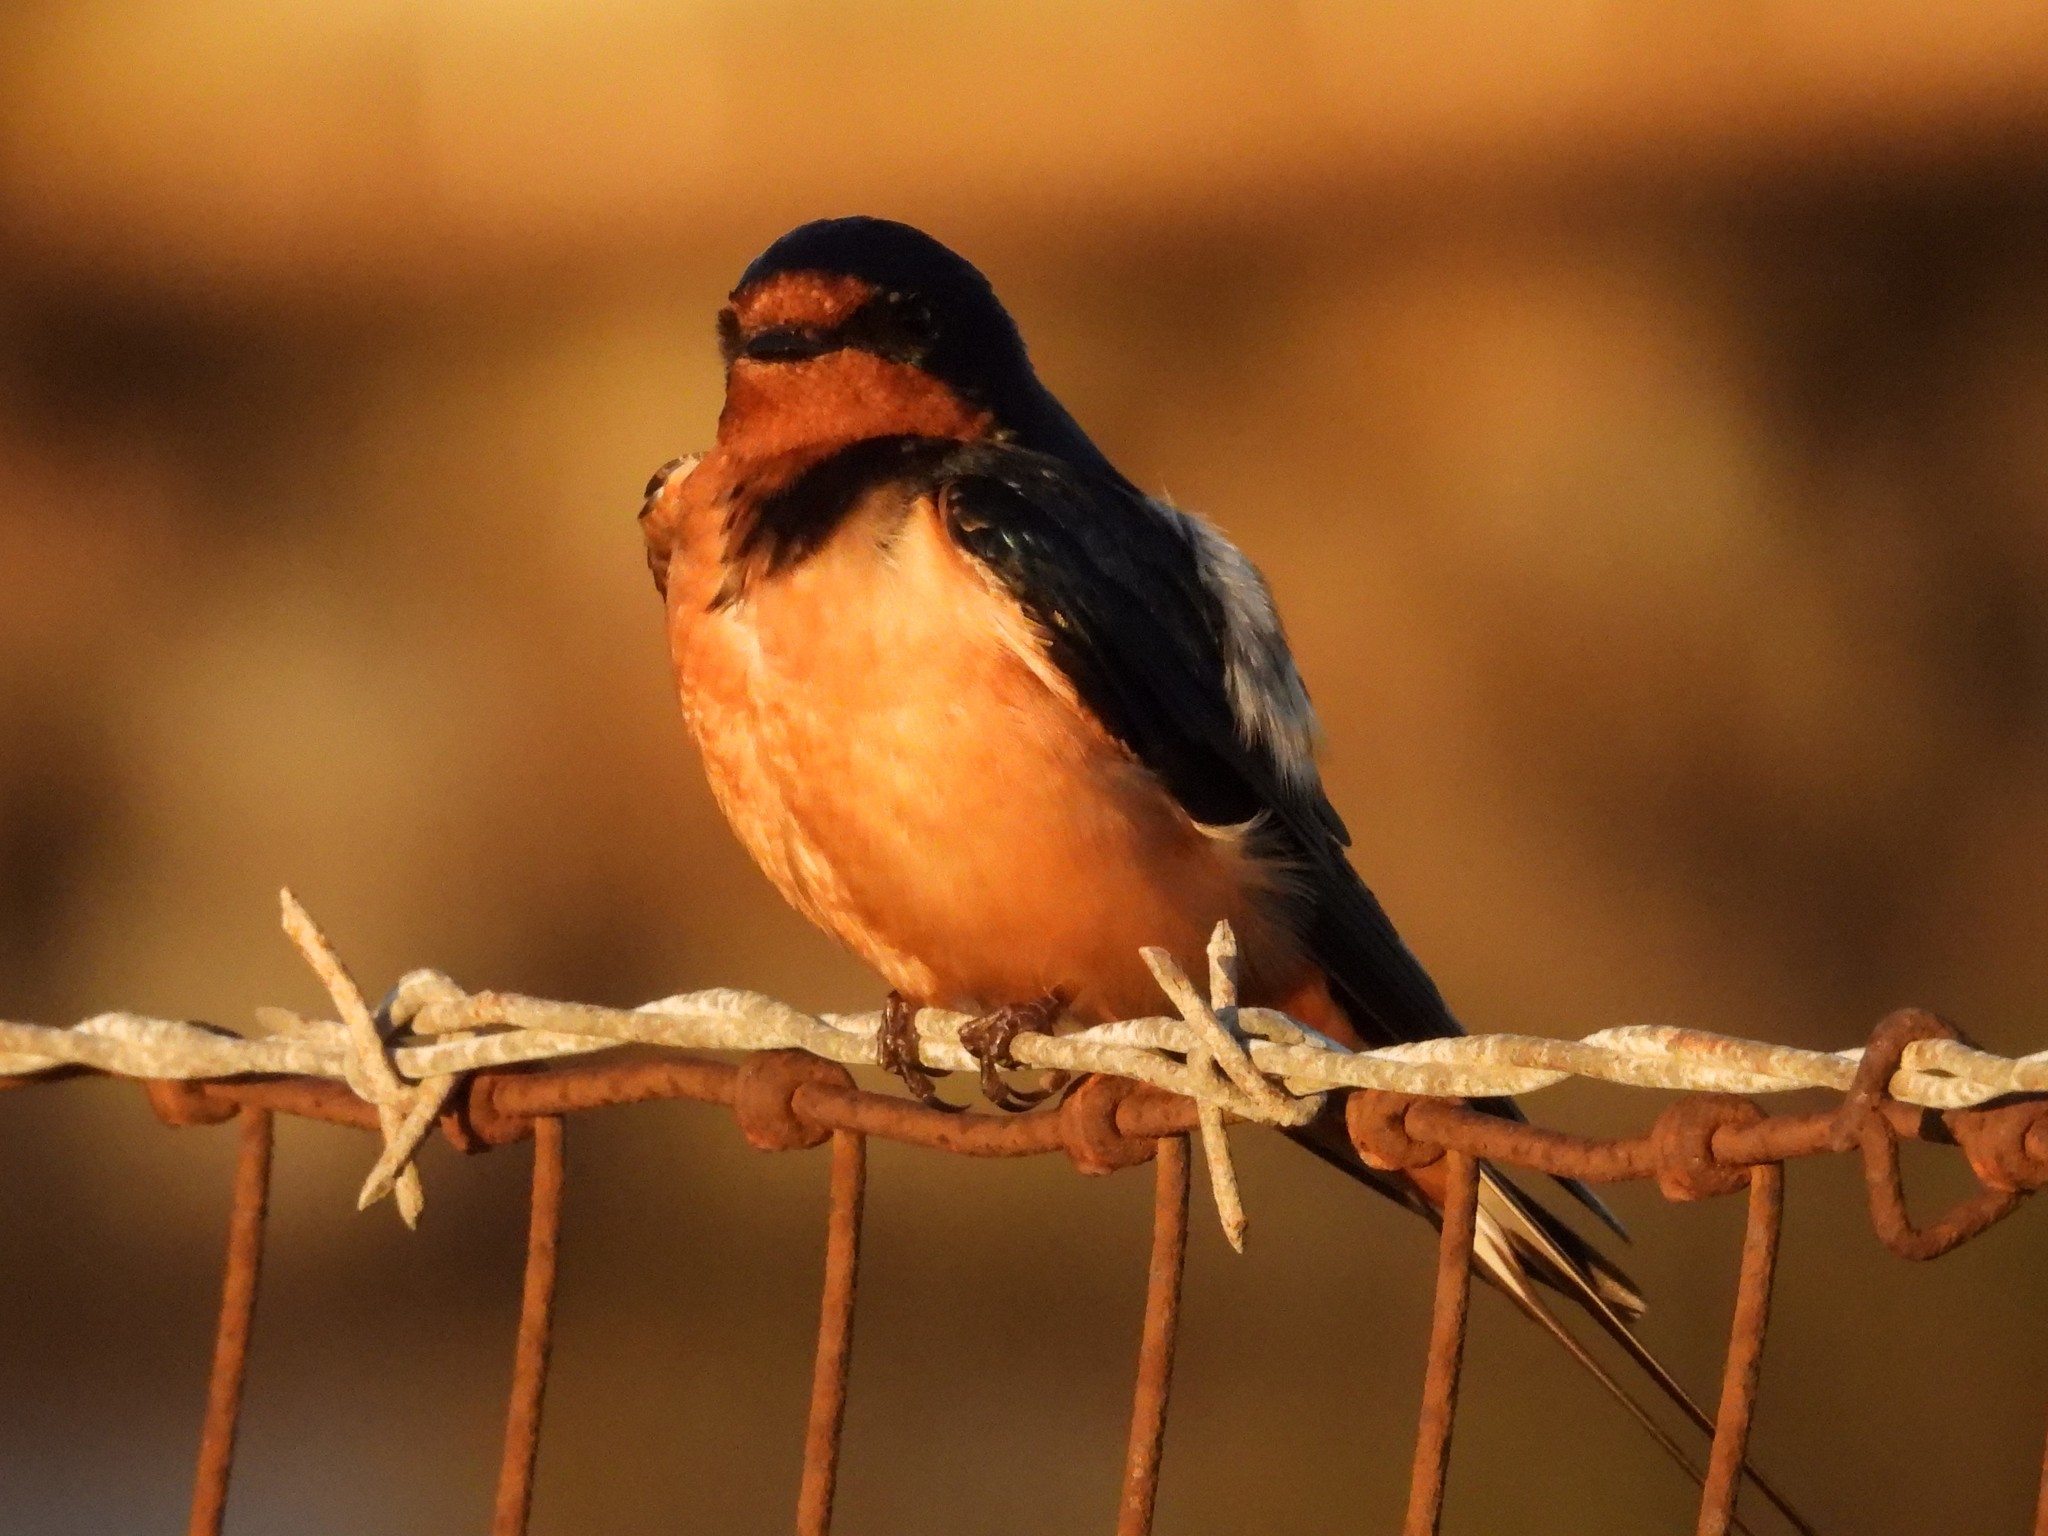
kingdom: Animalia
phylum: Chordata
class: Aves
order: Passeriformes
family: Hirundinidae
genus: Hirundo
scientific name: Hirundo rustica
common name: Barn swallow
